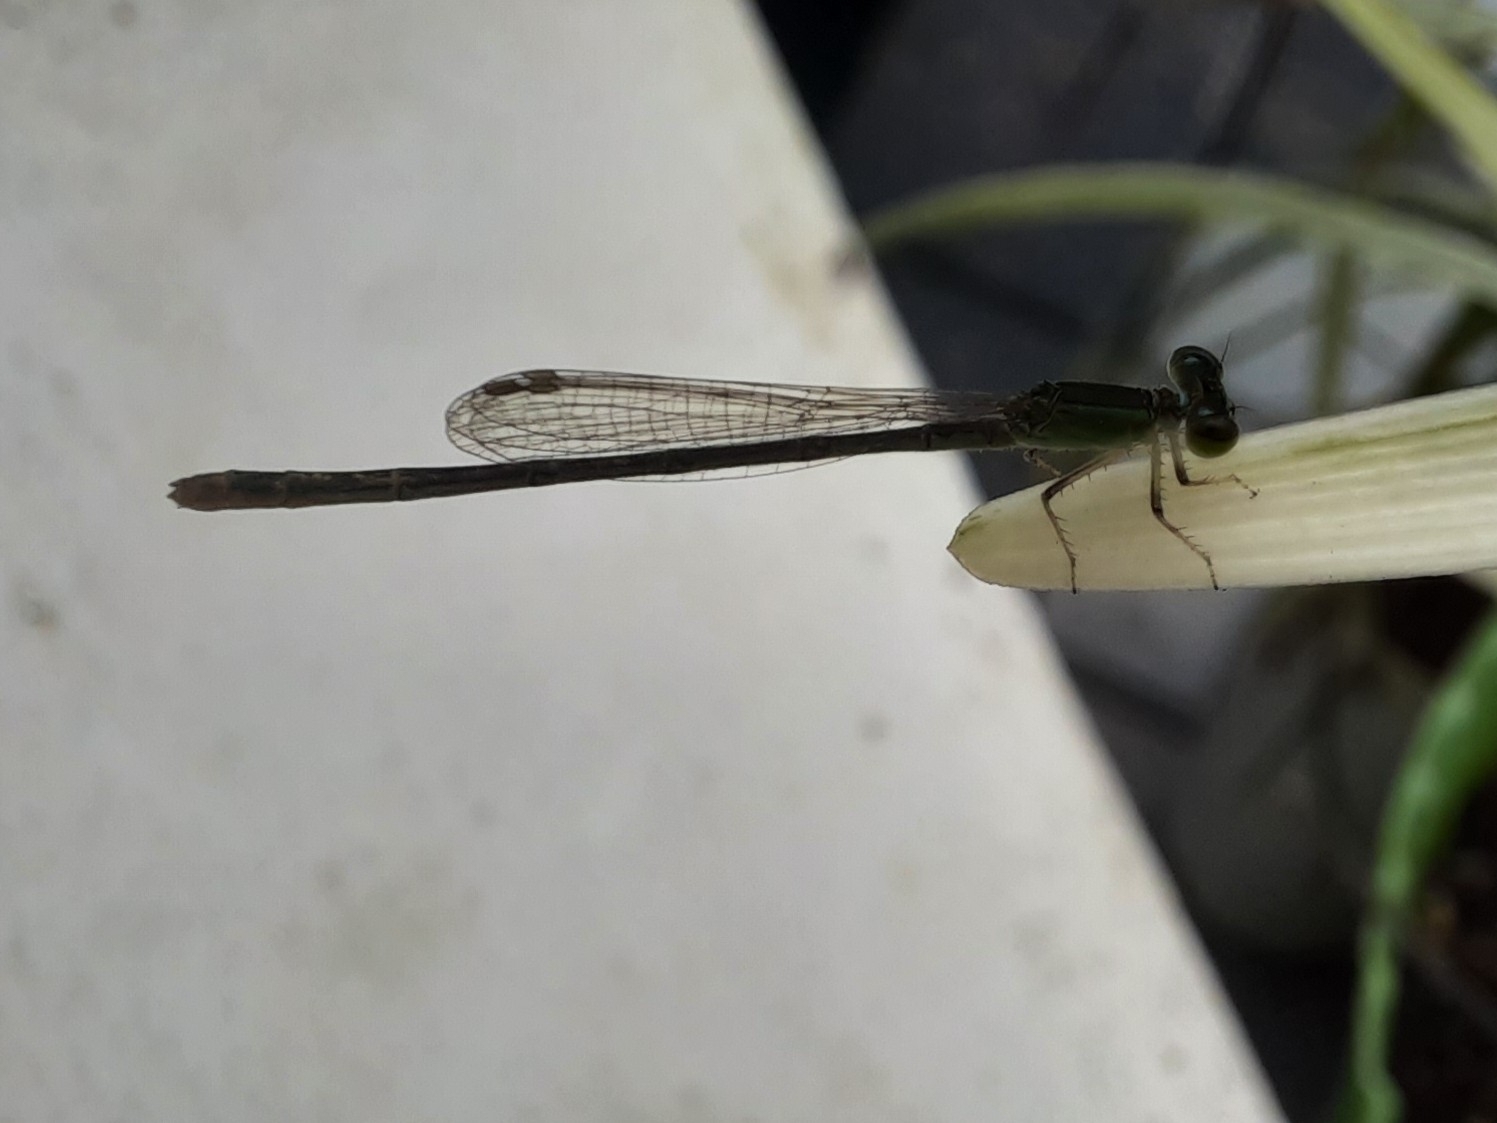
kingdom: Animalia
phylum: Arthropoda
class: Insecta
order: Odonata
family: Coenagrionidae
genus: Agriocnemis
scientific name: Agriocnemis pygmaea
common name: Pygmy wisp
